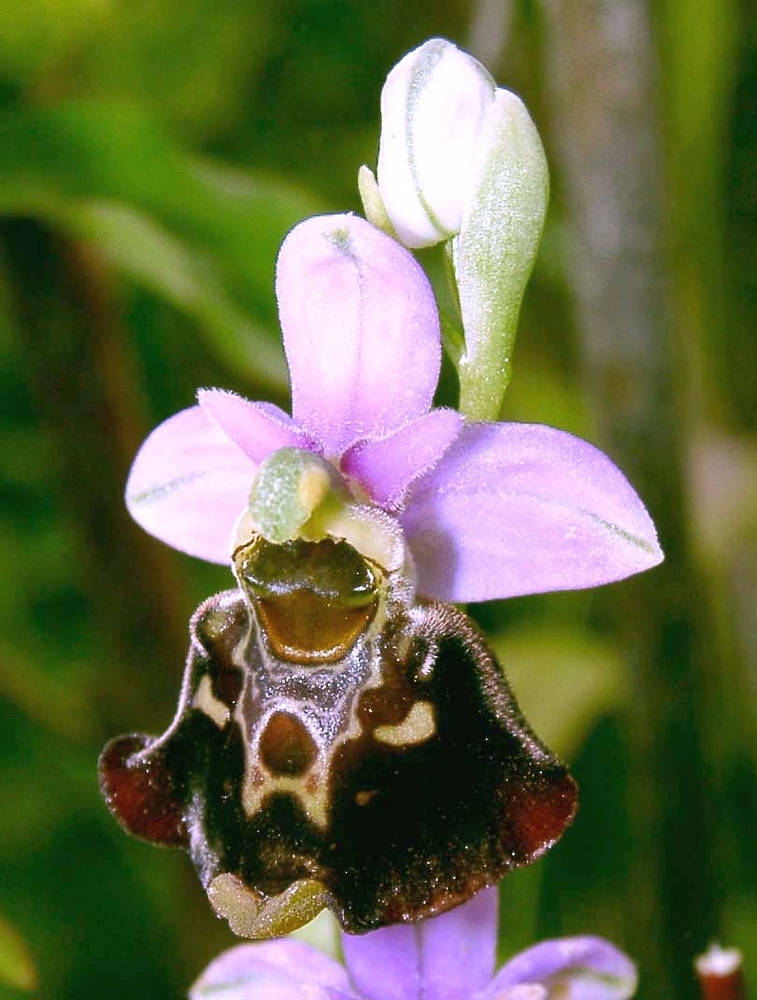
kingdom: Plantae
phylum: Tracheophyta
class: Liliopsida
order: Asparagales
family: Orchidaceae
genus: Ophrys
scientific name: Ophrys holosericea
